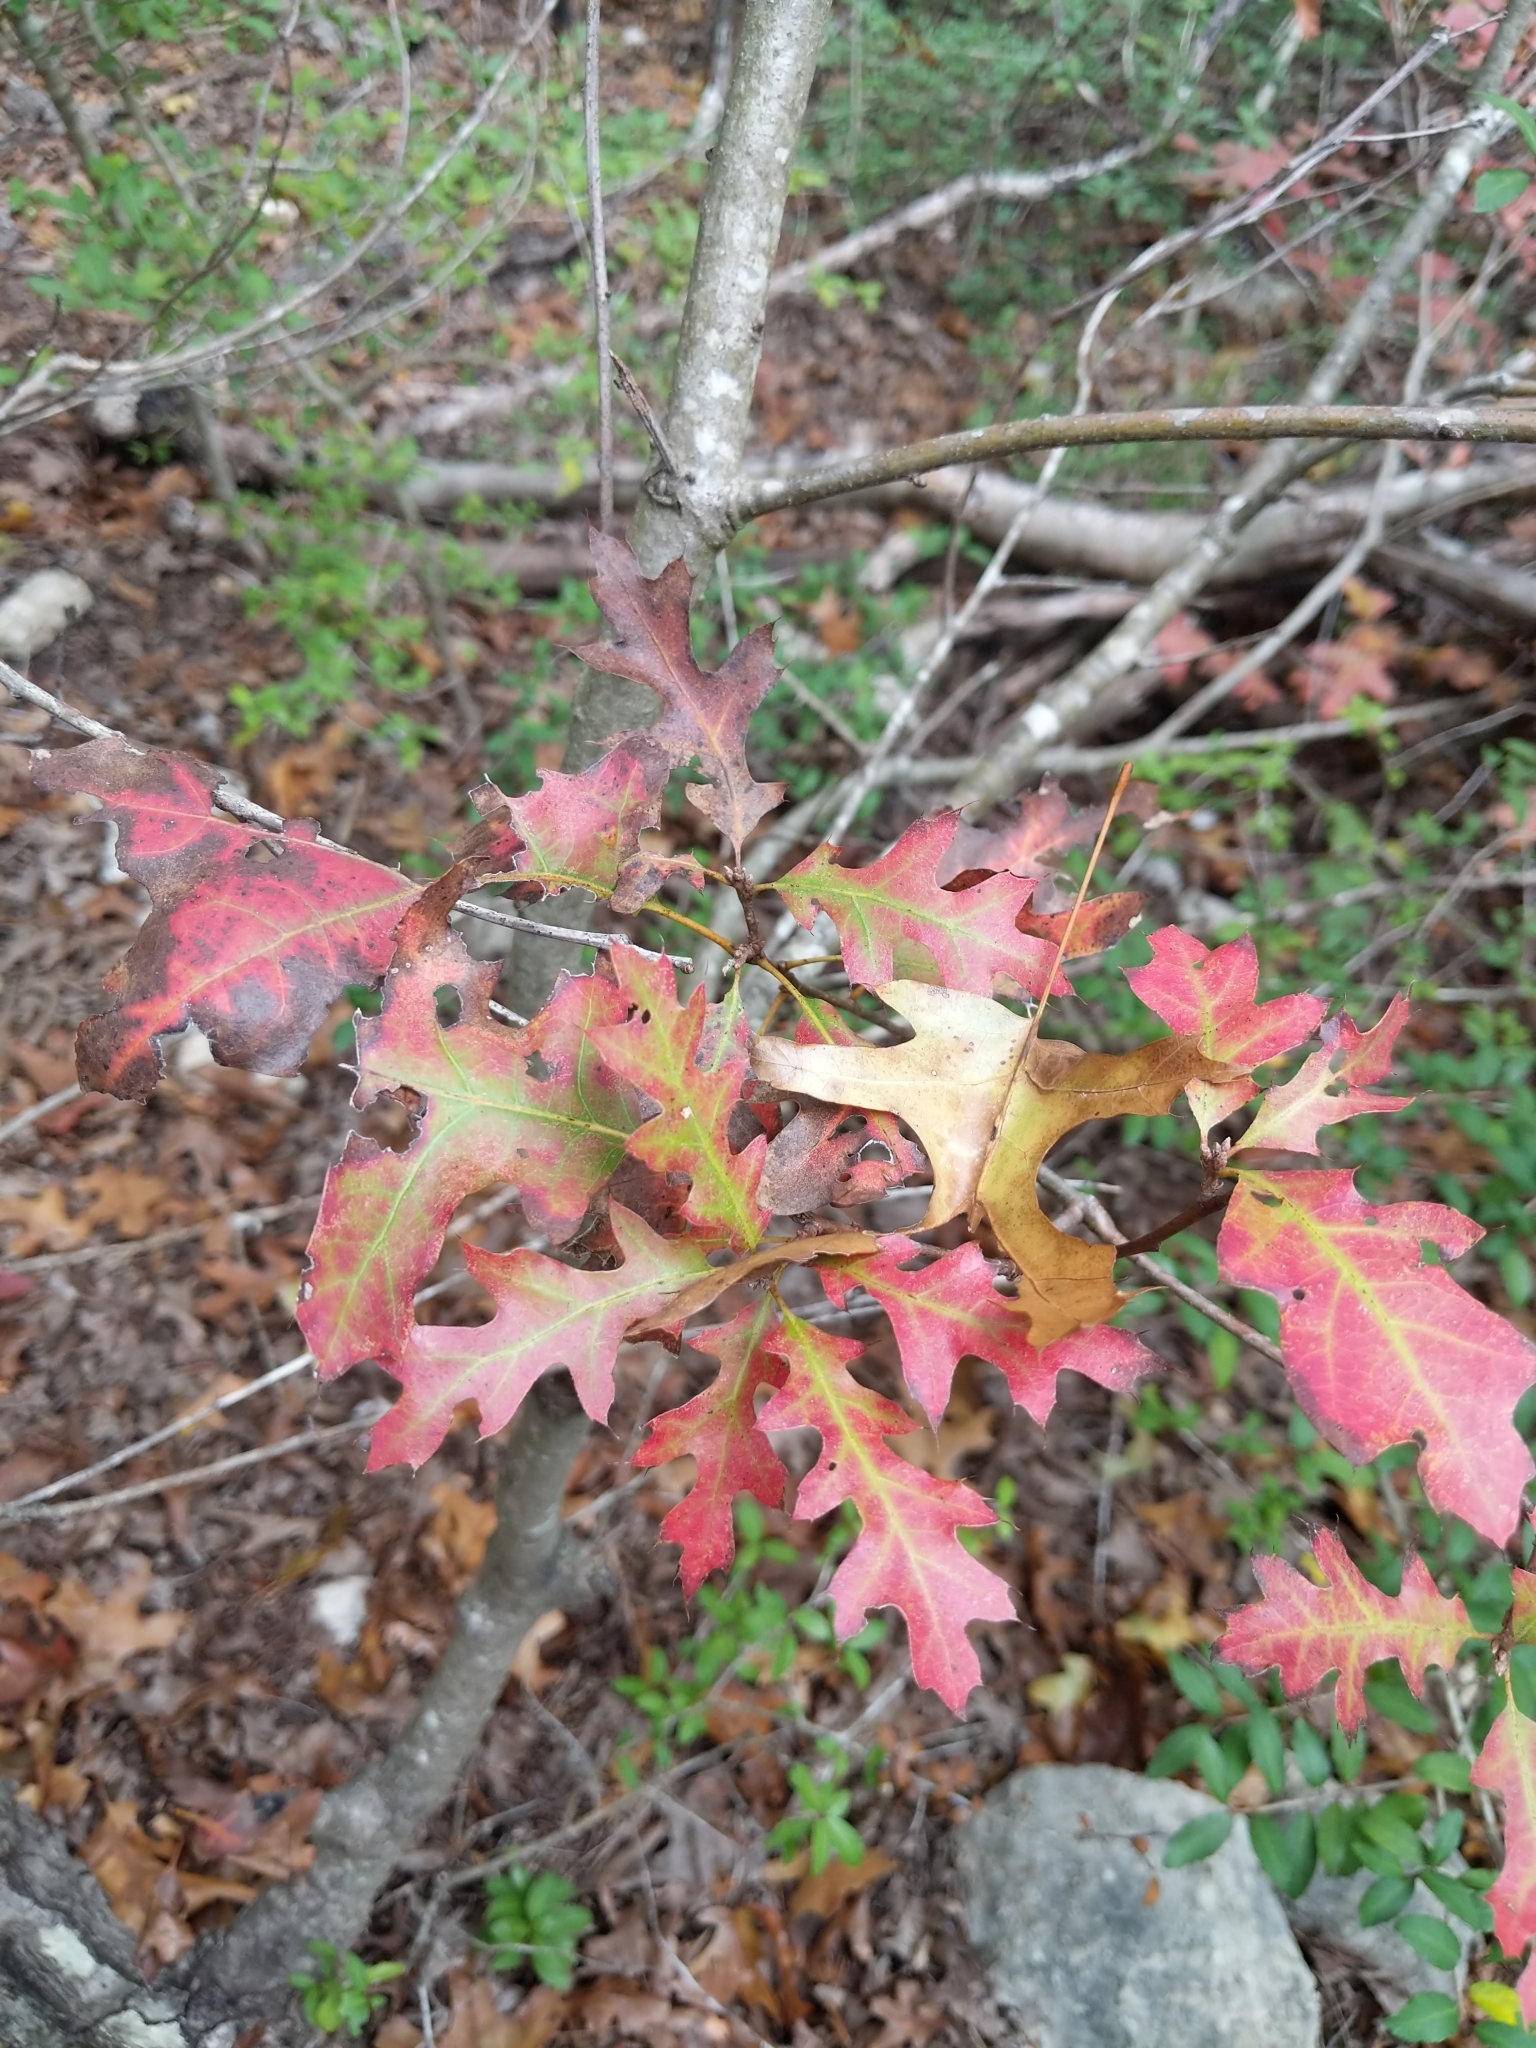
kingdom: Plantae
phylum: Tracheophyta
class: Magnoliopsida
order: Fagales
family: Fagaceae
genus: Quercus
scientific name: Quercus buckleyi
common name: Buckley oak
